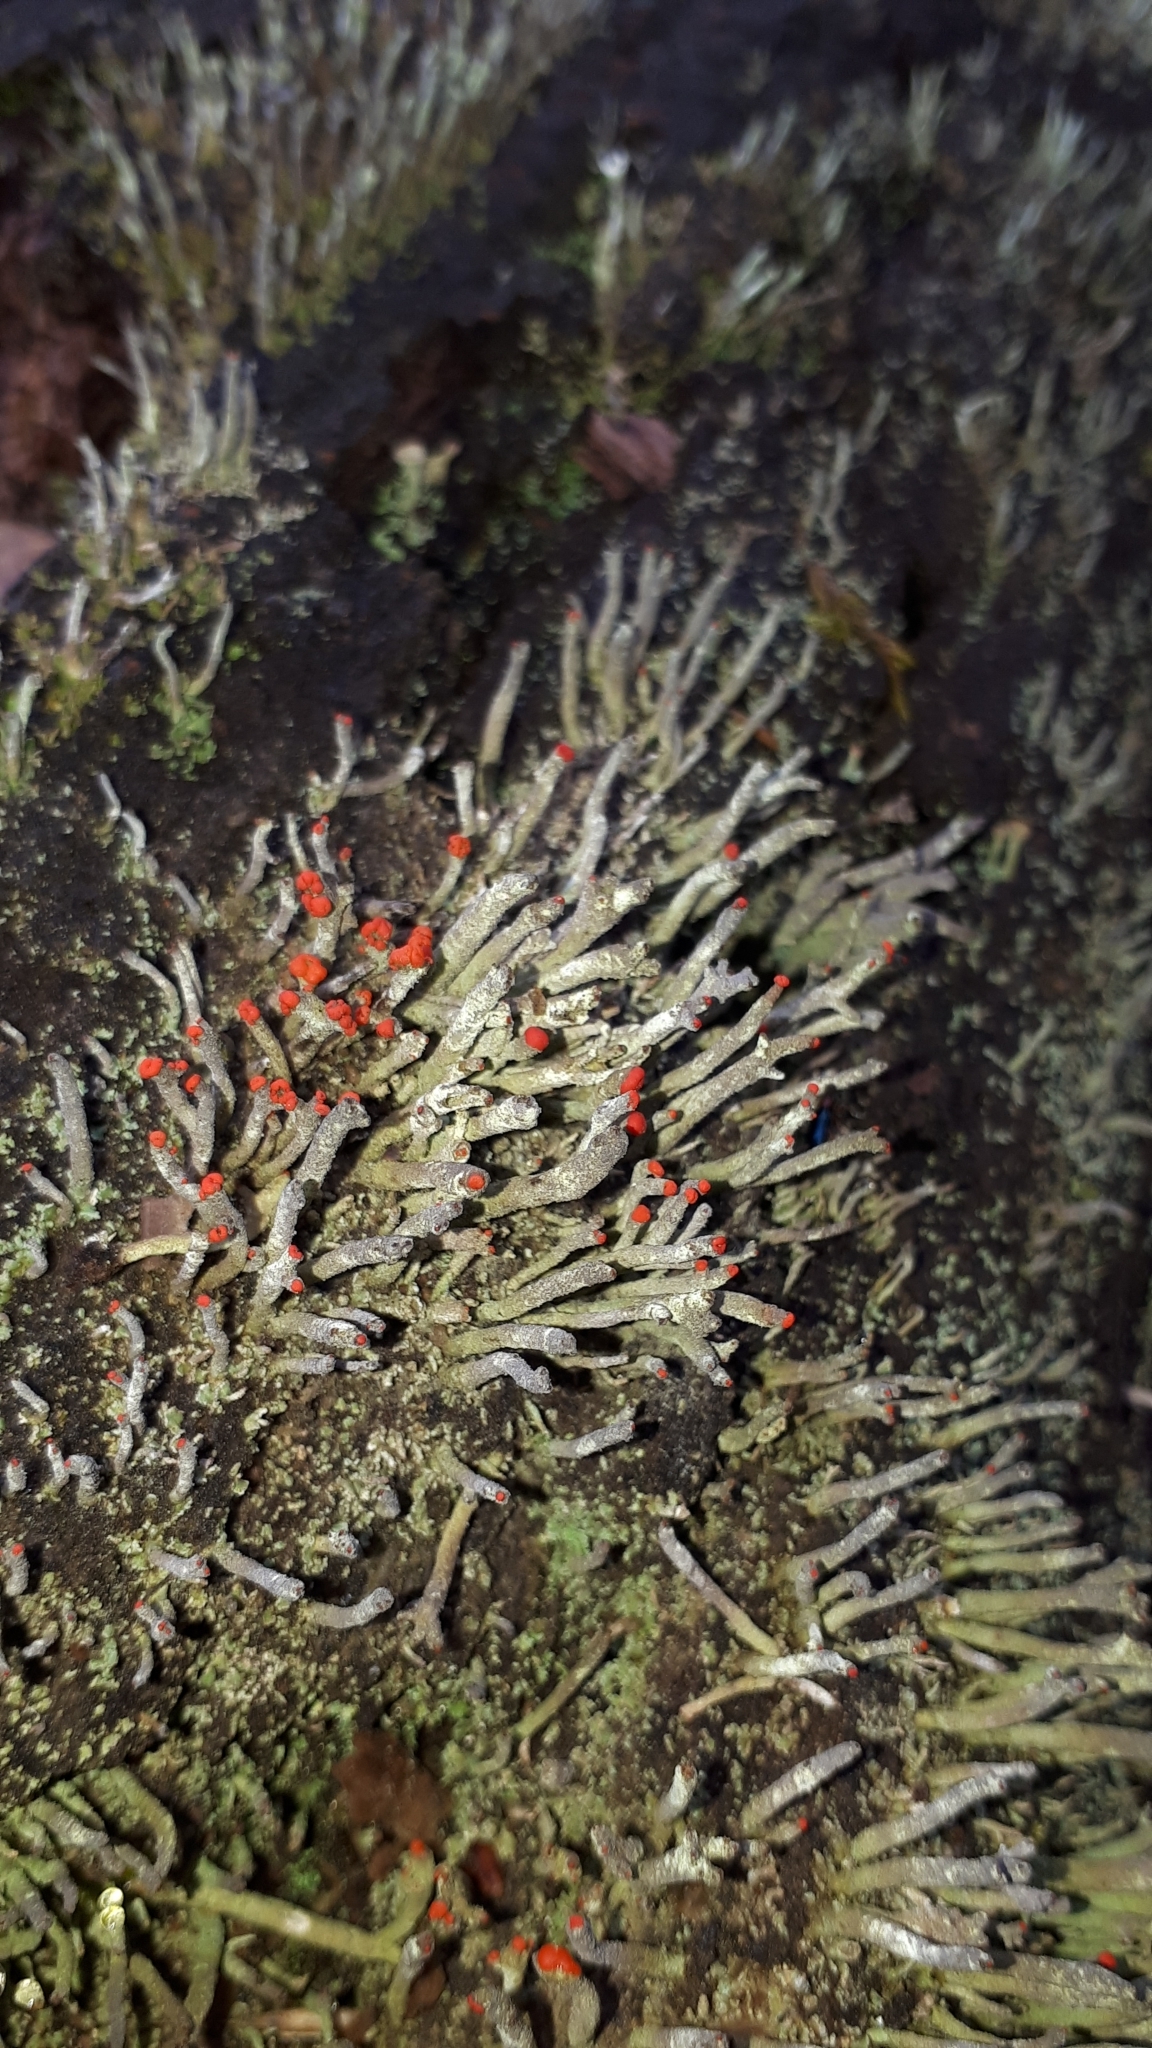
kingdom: Fungi
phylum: Ascomycota
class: Lecanoromycetes
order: Lecanorales
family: Cladoniaceae
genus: Cladonia
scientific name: Cladonia macilenta
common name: Lipstick powderhorn
